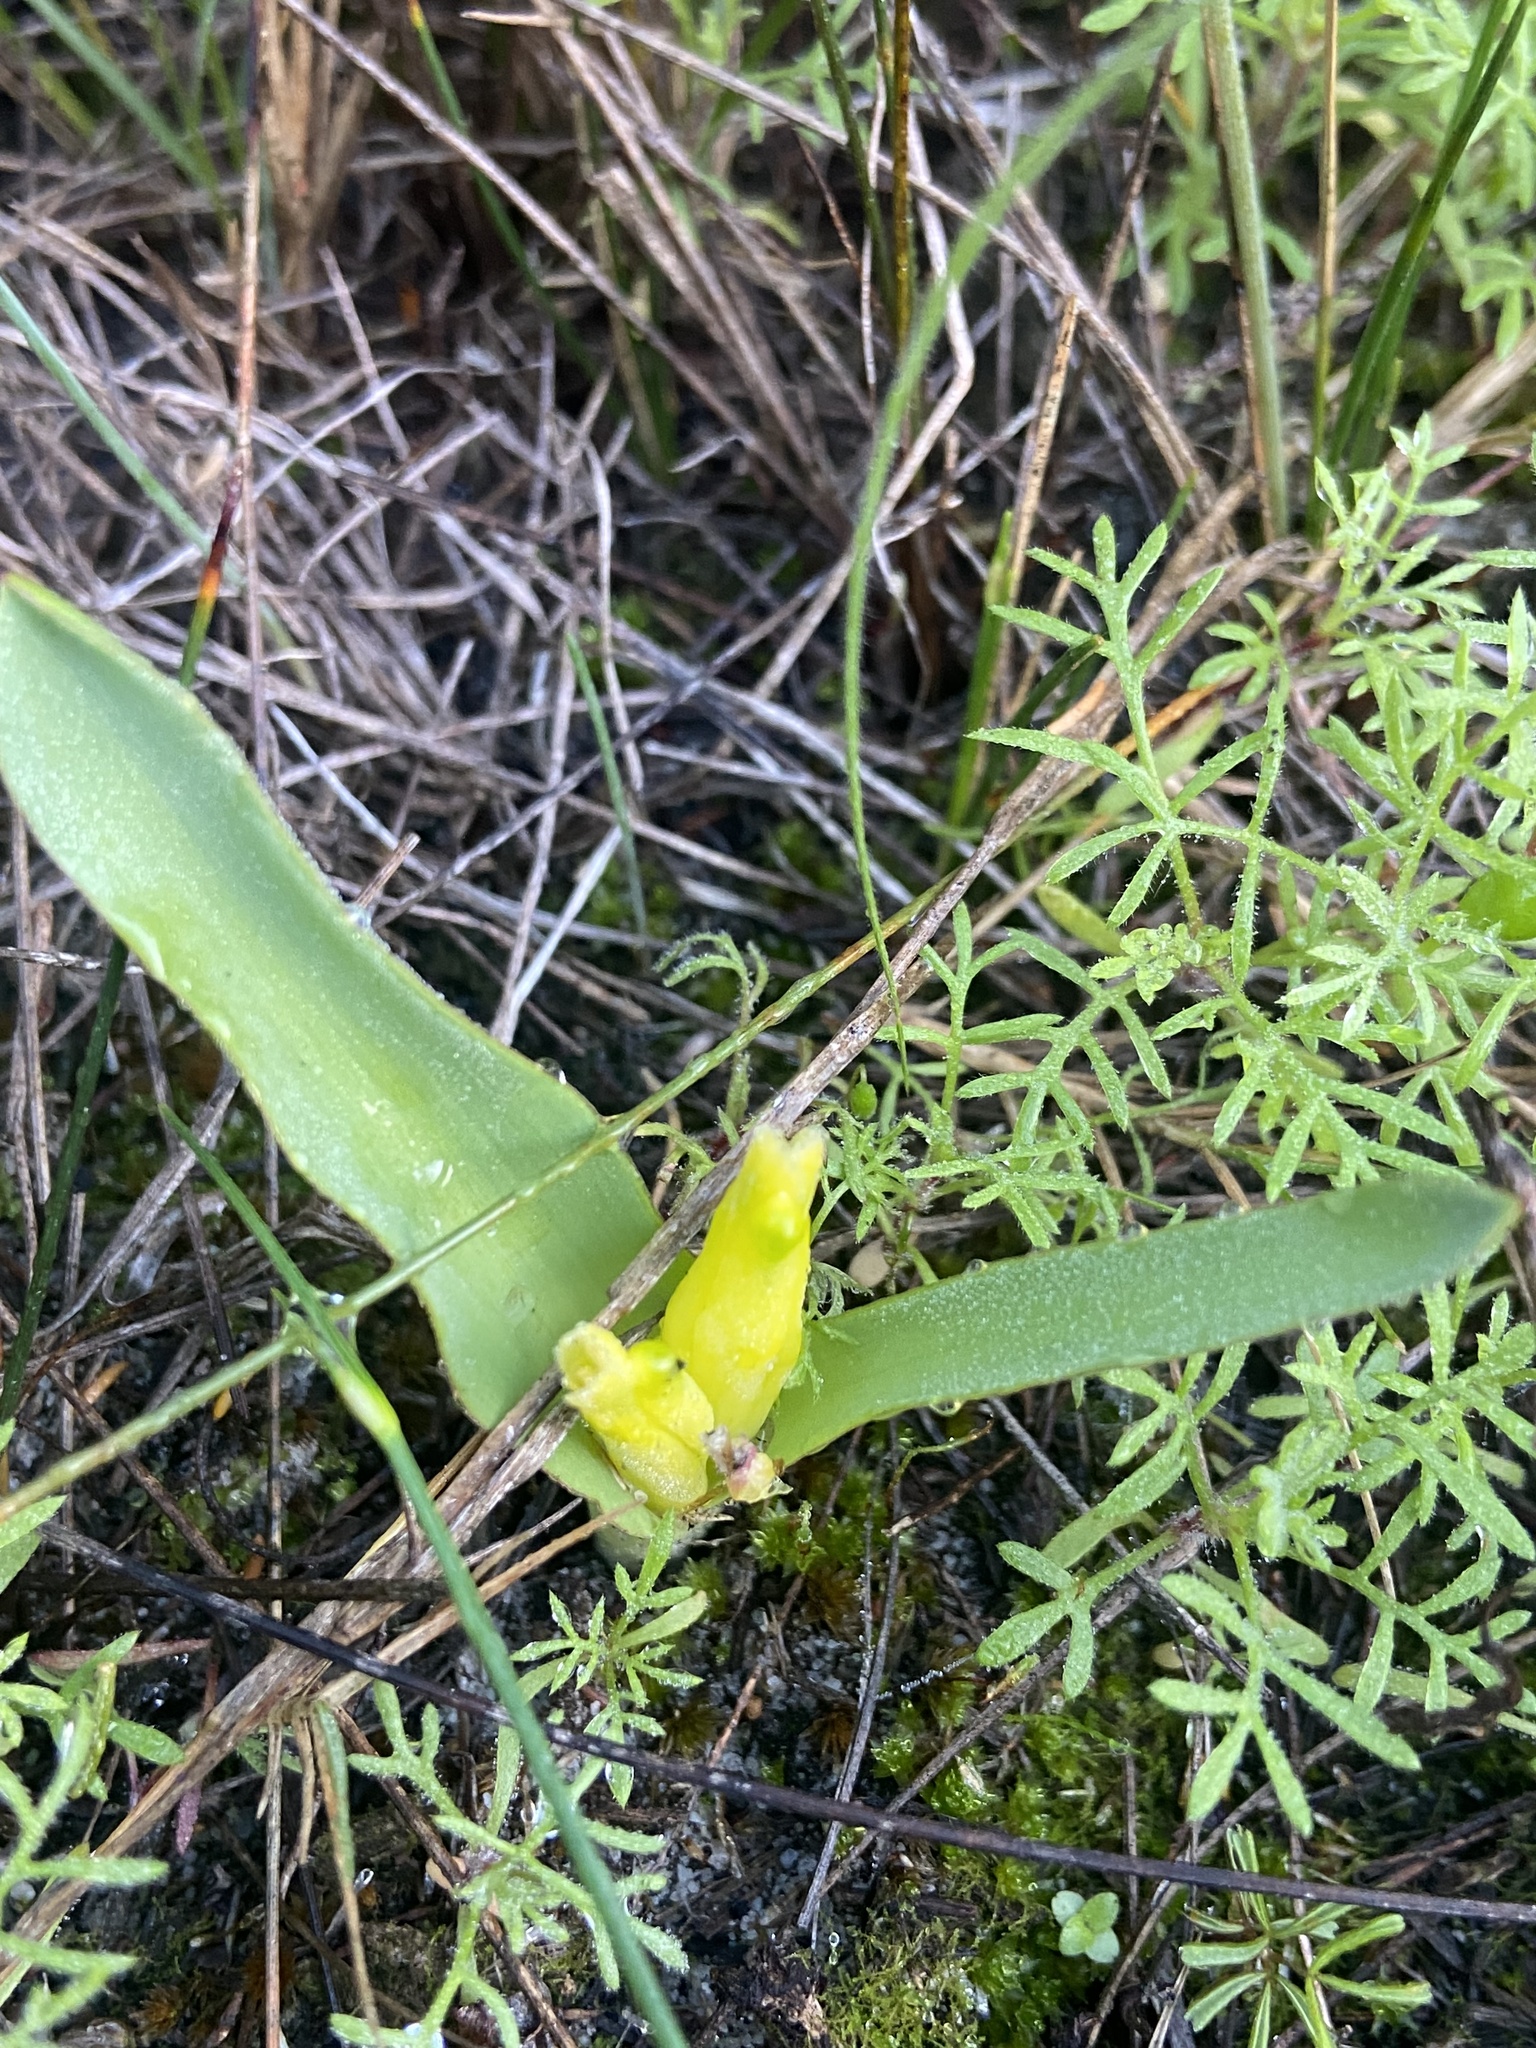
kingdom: Plantae
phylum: Tracheophyta
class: Liliopsida
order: Asparagales
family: Asparagaceae
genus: Lachenalia
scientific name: Lachenalia reflexa
